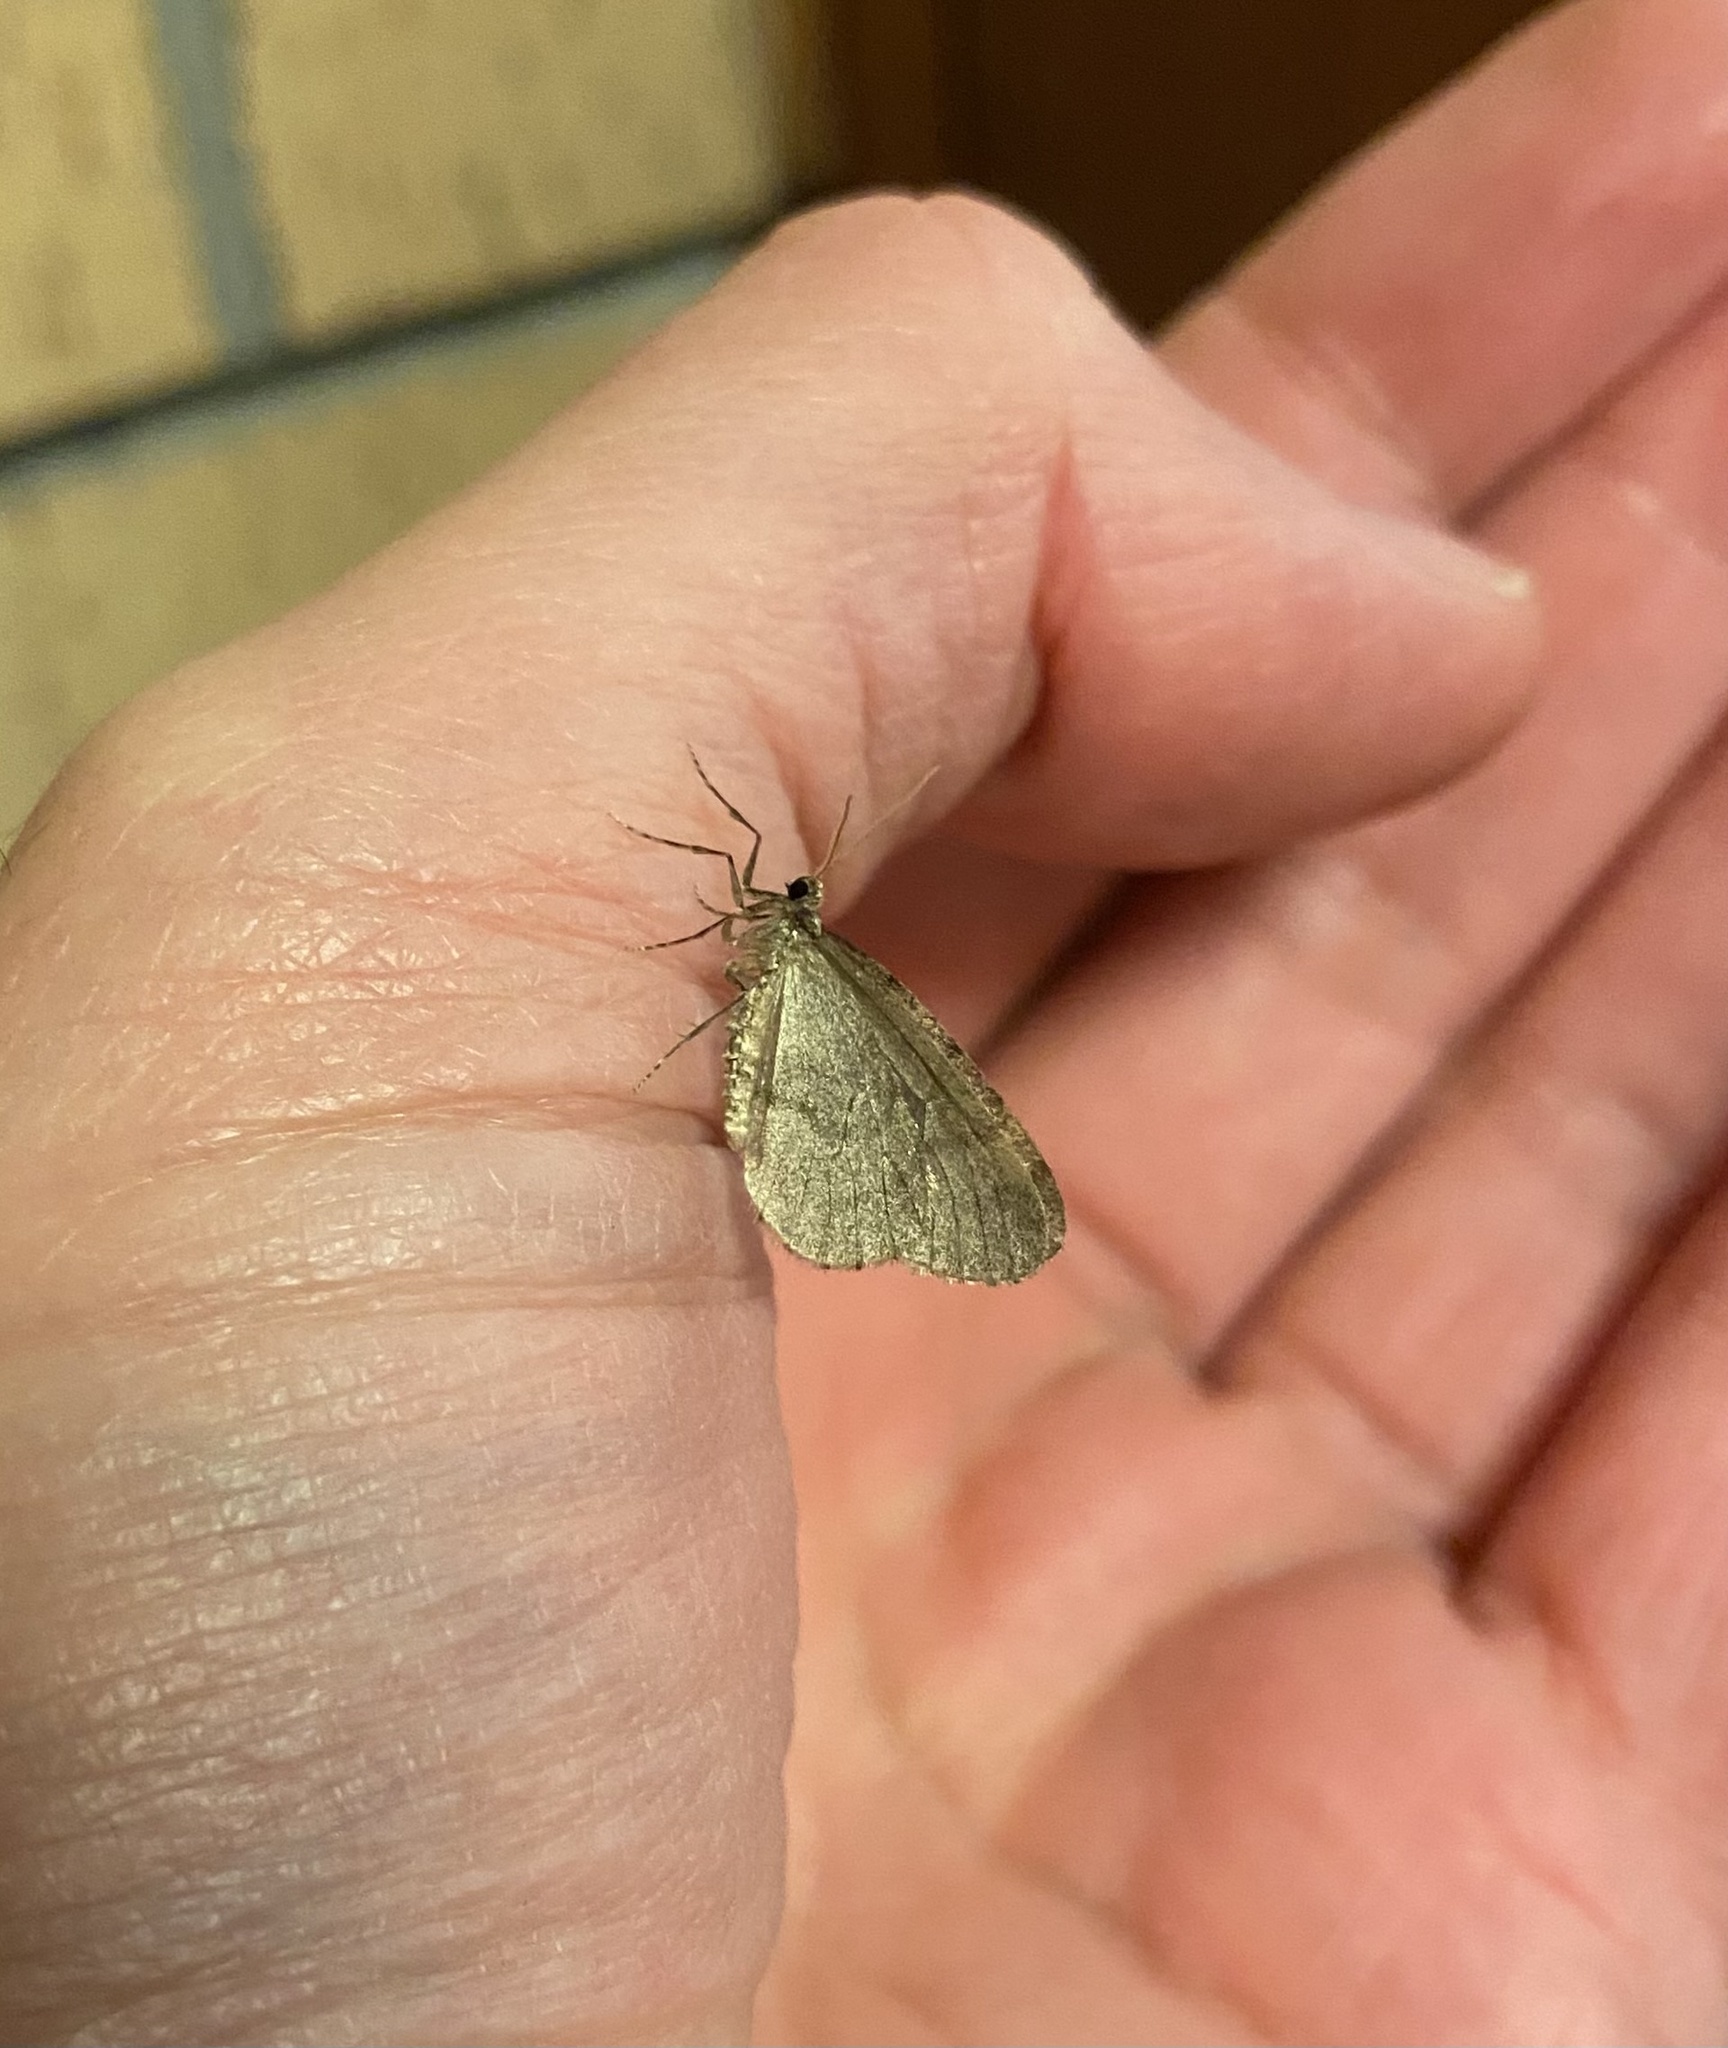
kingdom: Animalia
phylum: Arthropoda
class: Insecta
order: Lepidoptera
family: Geometridae
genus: Operophtera
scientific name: Operophtera brumata
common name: Winter moth
